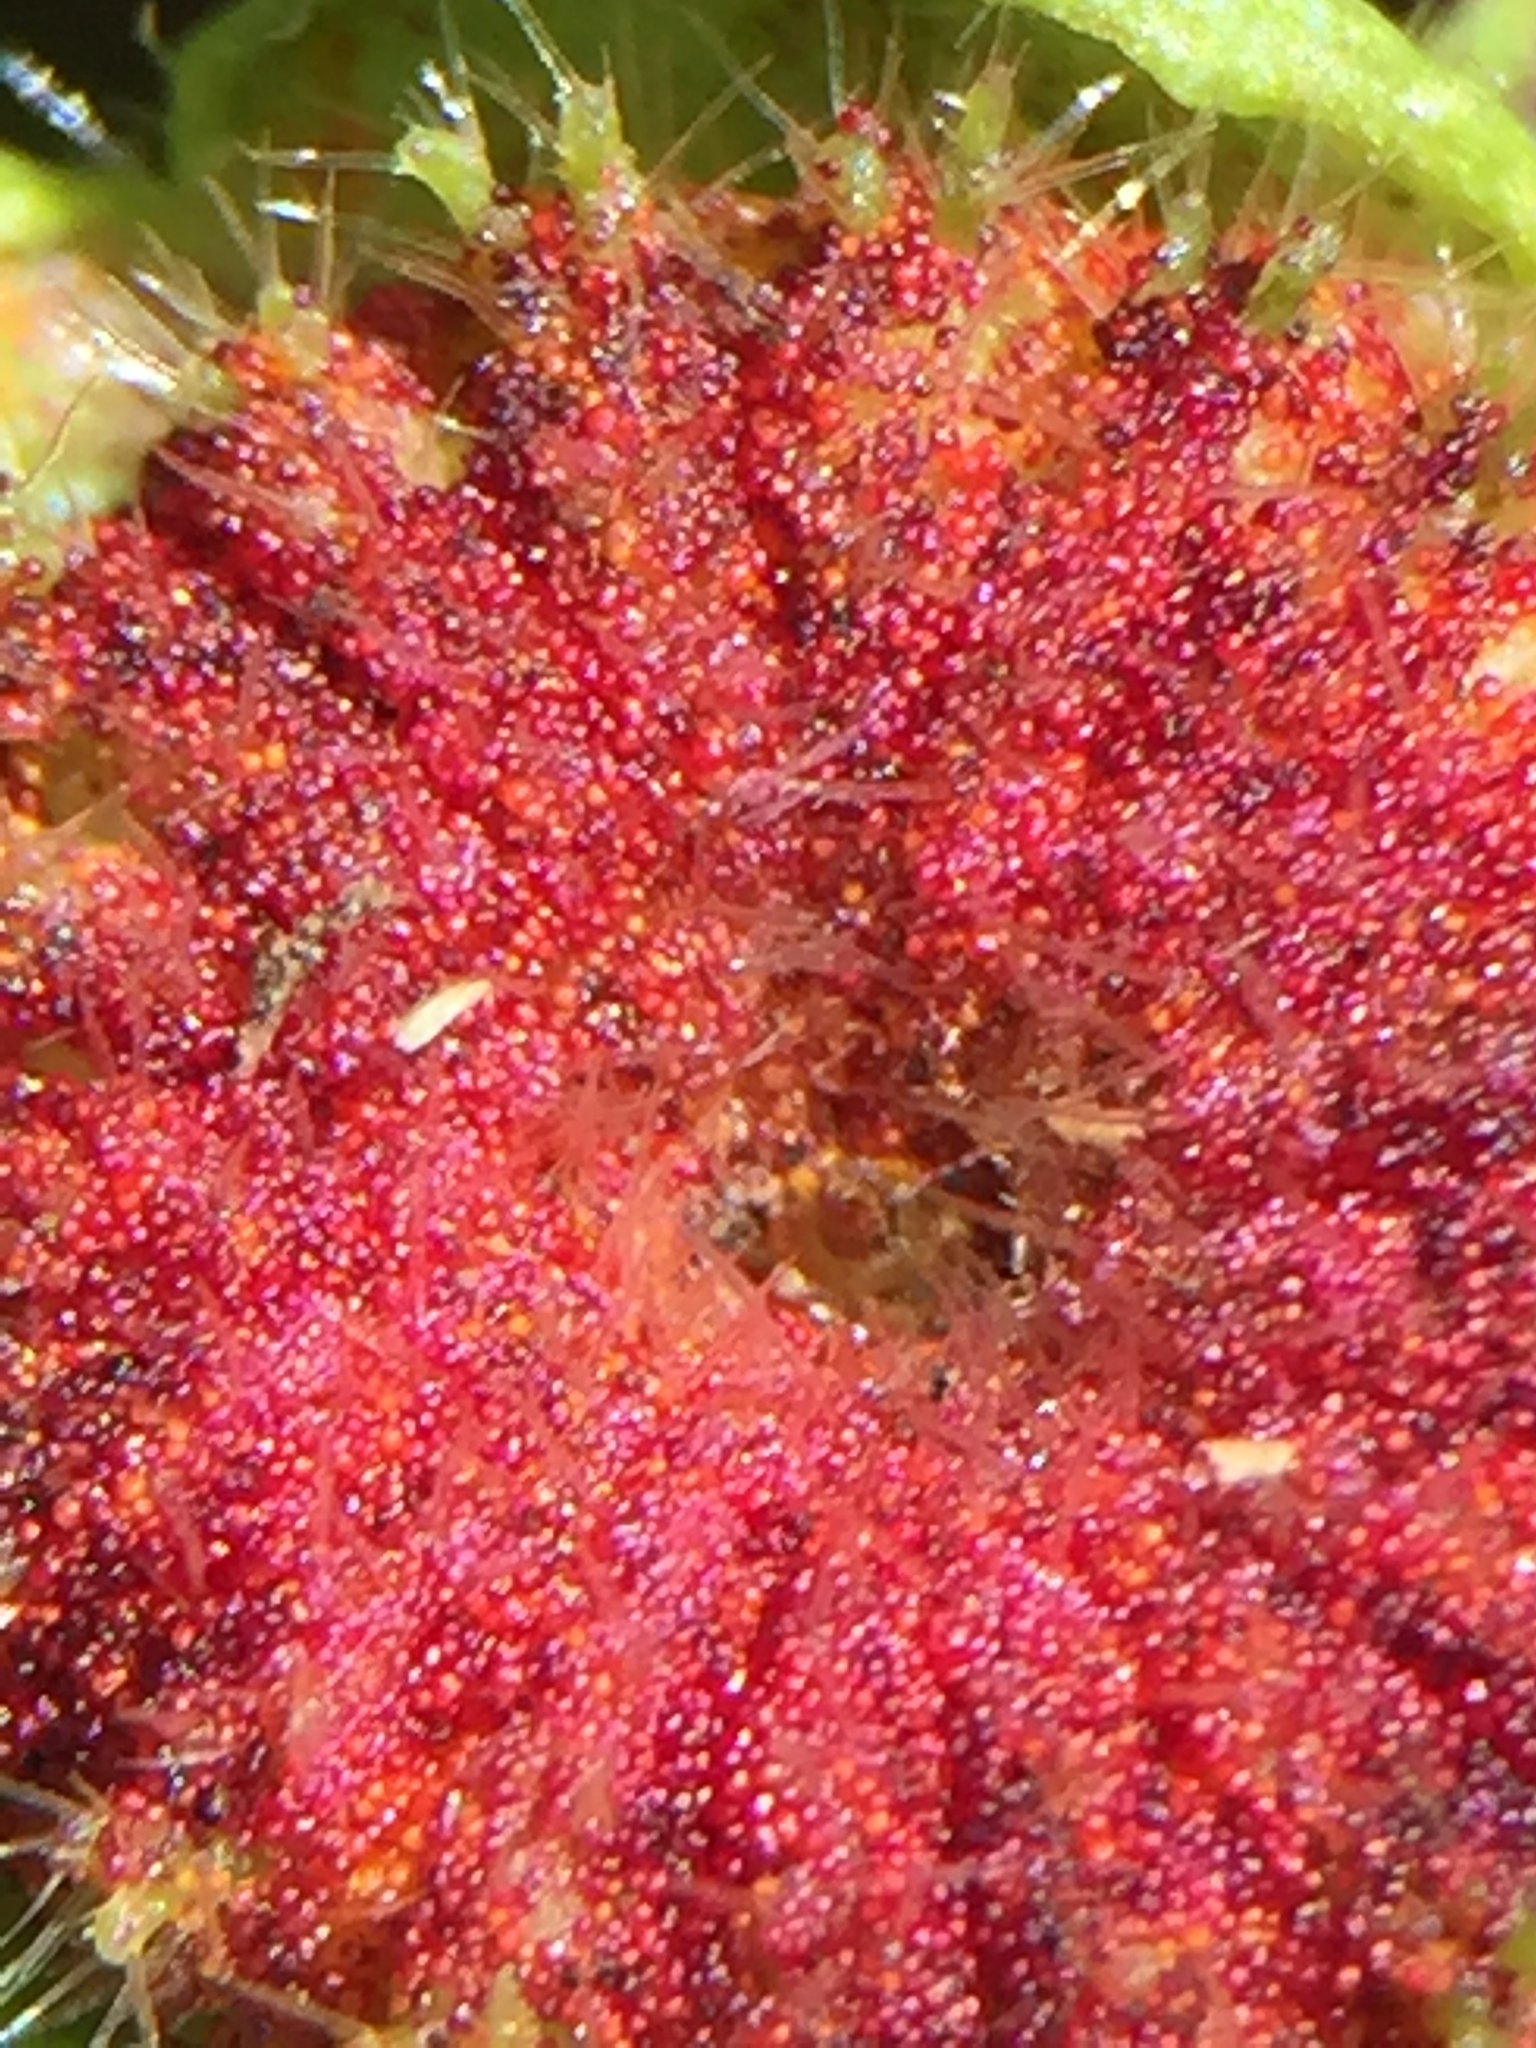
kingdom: Fungi
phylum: Chytridiomycota
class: Chytridiomycetes
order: Chytridiales
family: Synchytriaceae
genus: Synchytrium
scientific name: Synchytrium australe
